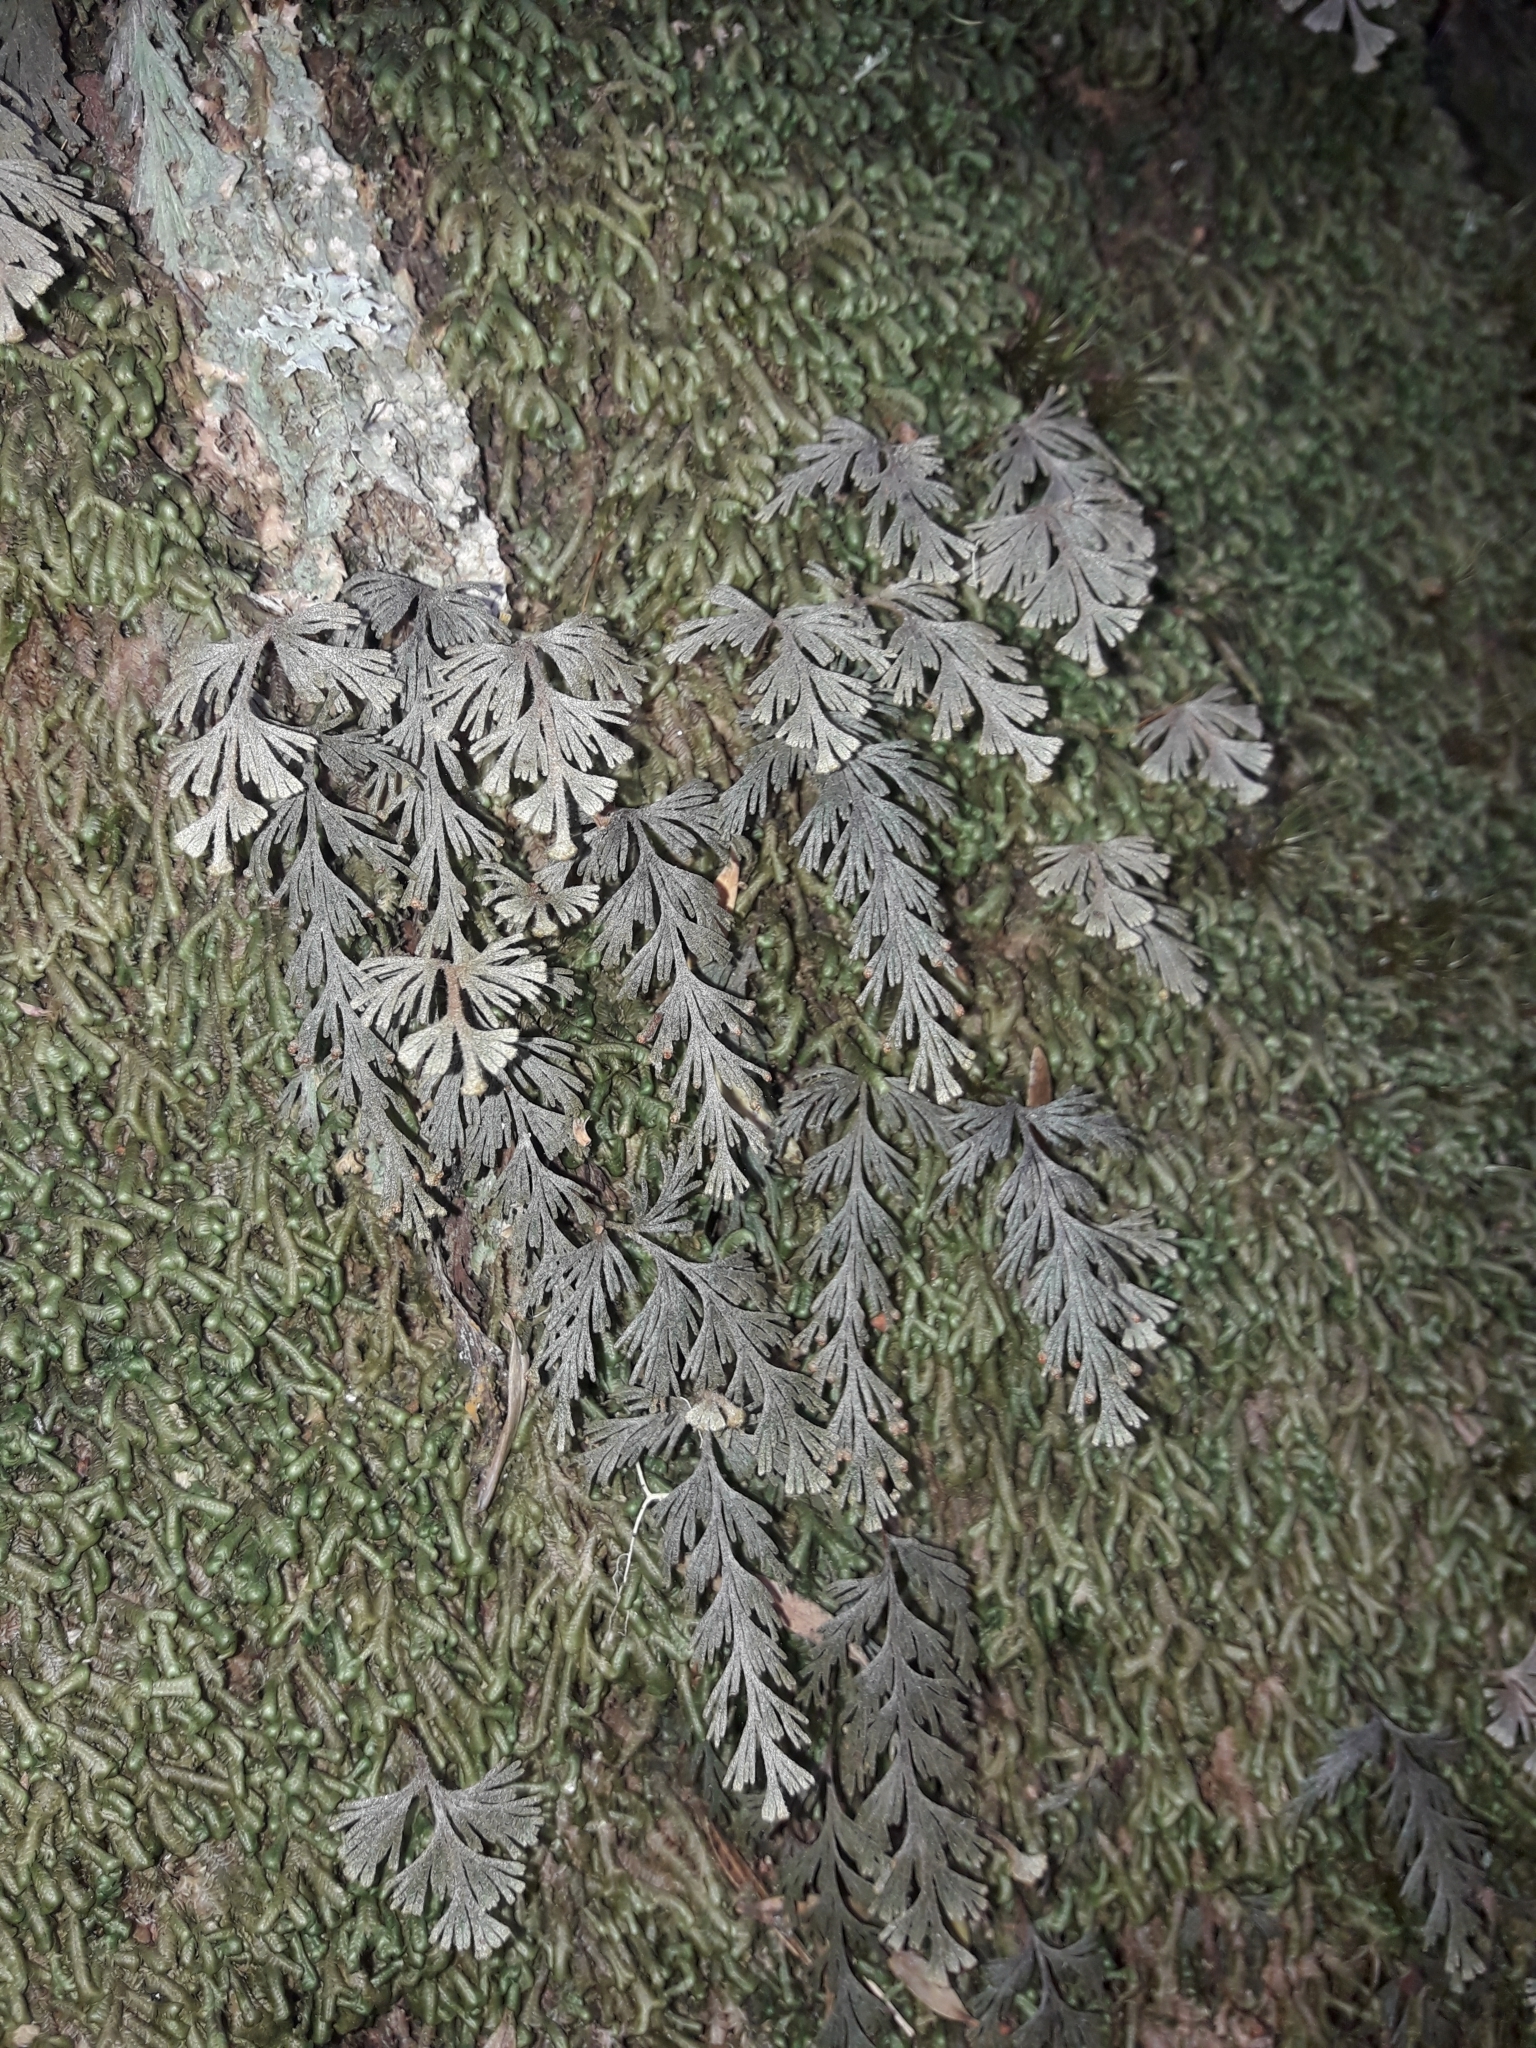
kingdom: Plantae
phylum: Tracheophyta
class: Polypodiopsida
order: Hymenophyllales
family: Hymenophyllaceae
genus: Hymenophyllum
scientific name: Hymenophyllum malingii
